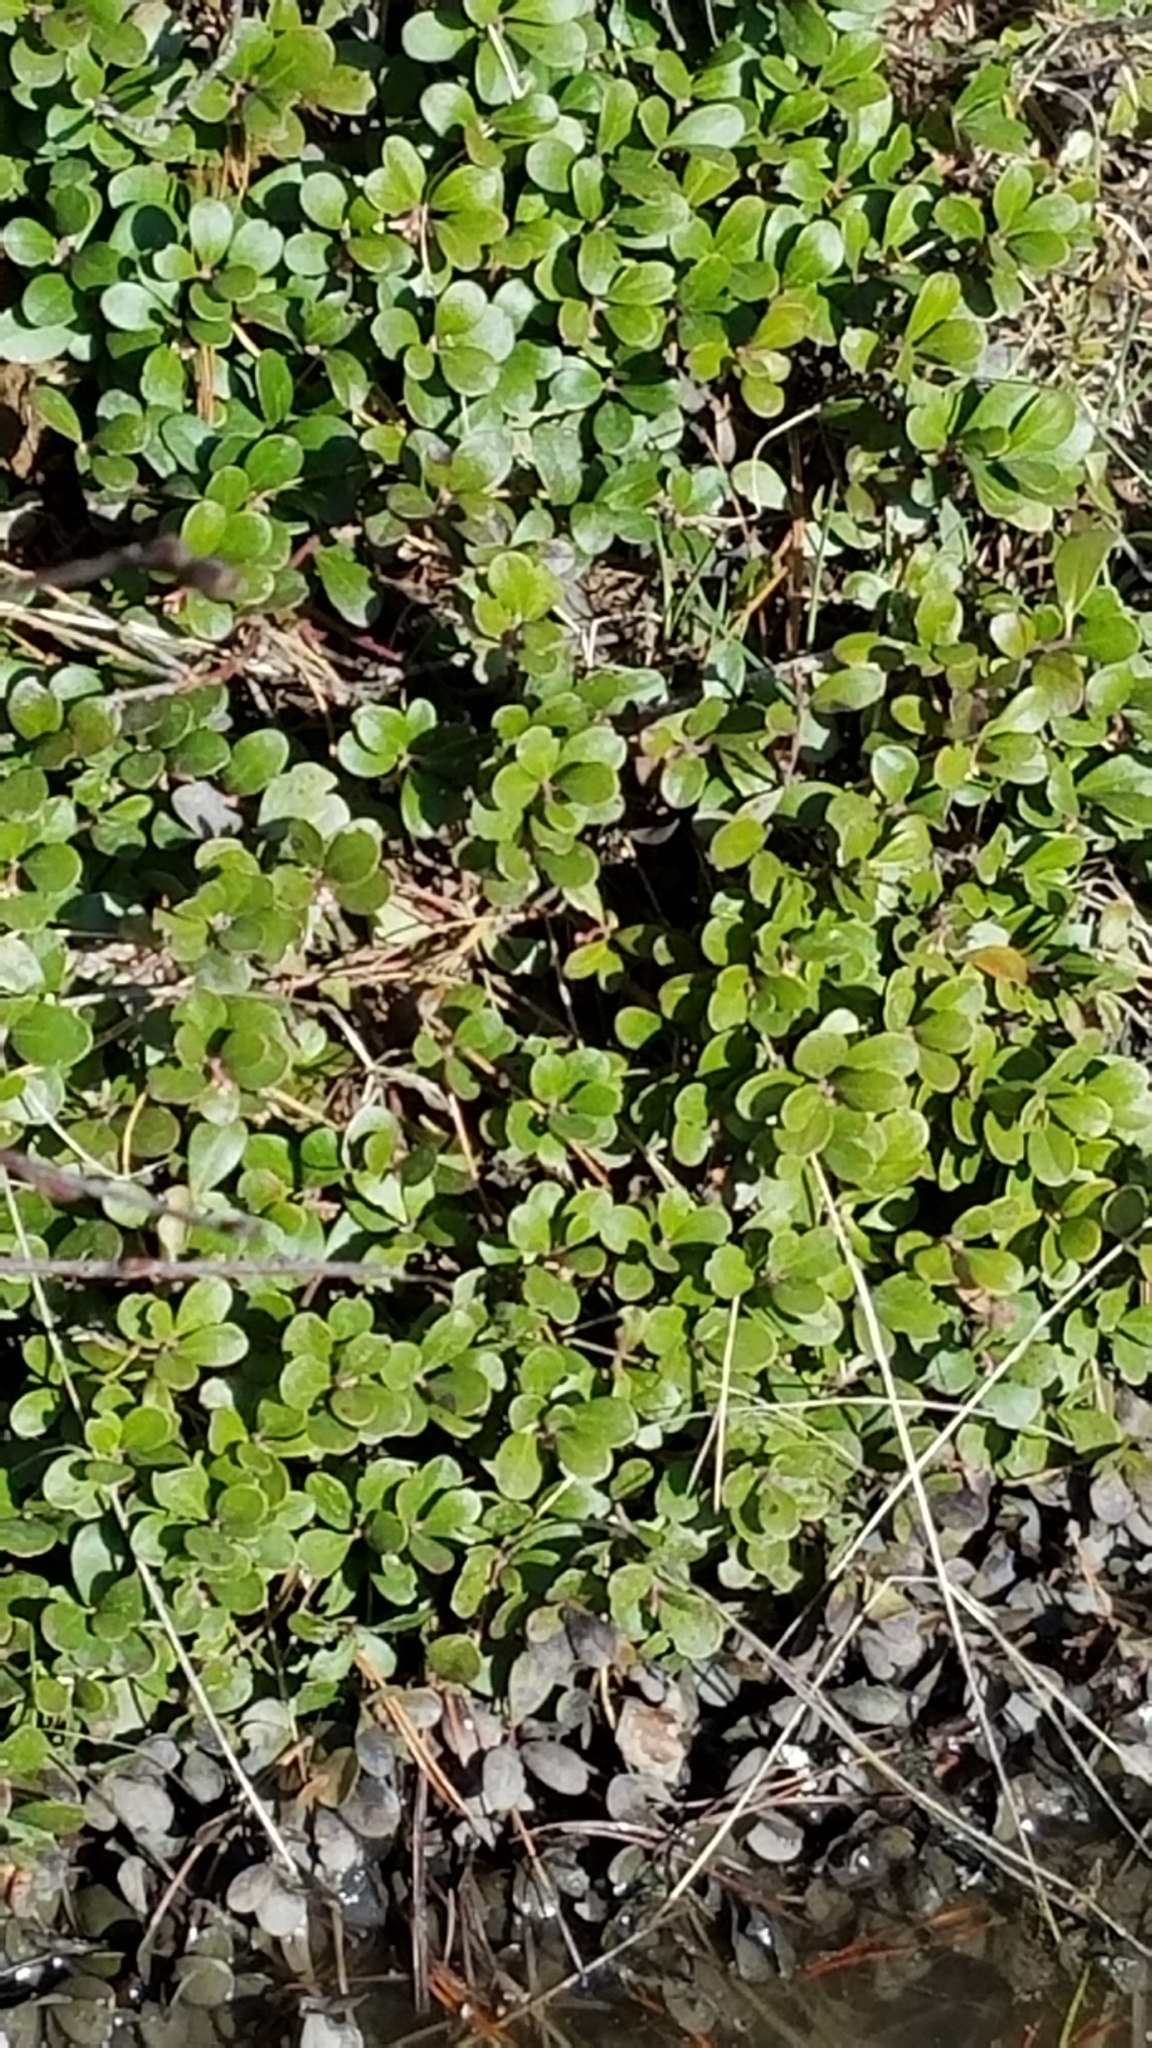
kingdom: Plantae
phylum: Tracheophyta
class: Magnoliopsida
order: Ericales
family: Ericaceae
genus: Arctostaphylos
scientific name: Arctostaphylos uva-ursi
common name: Bearberry
